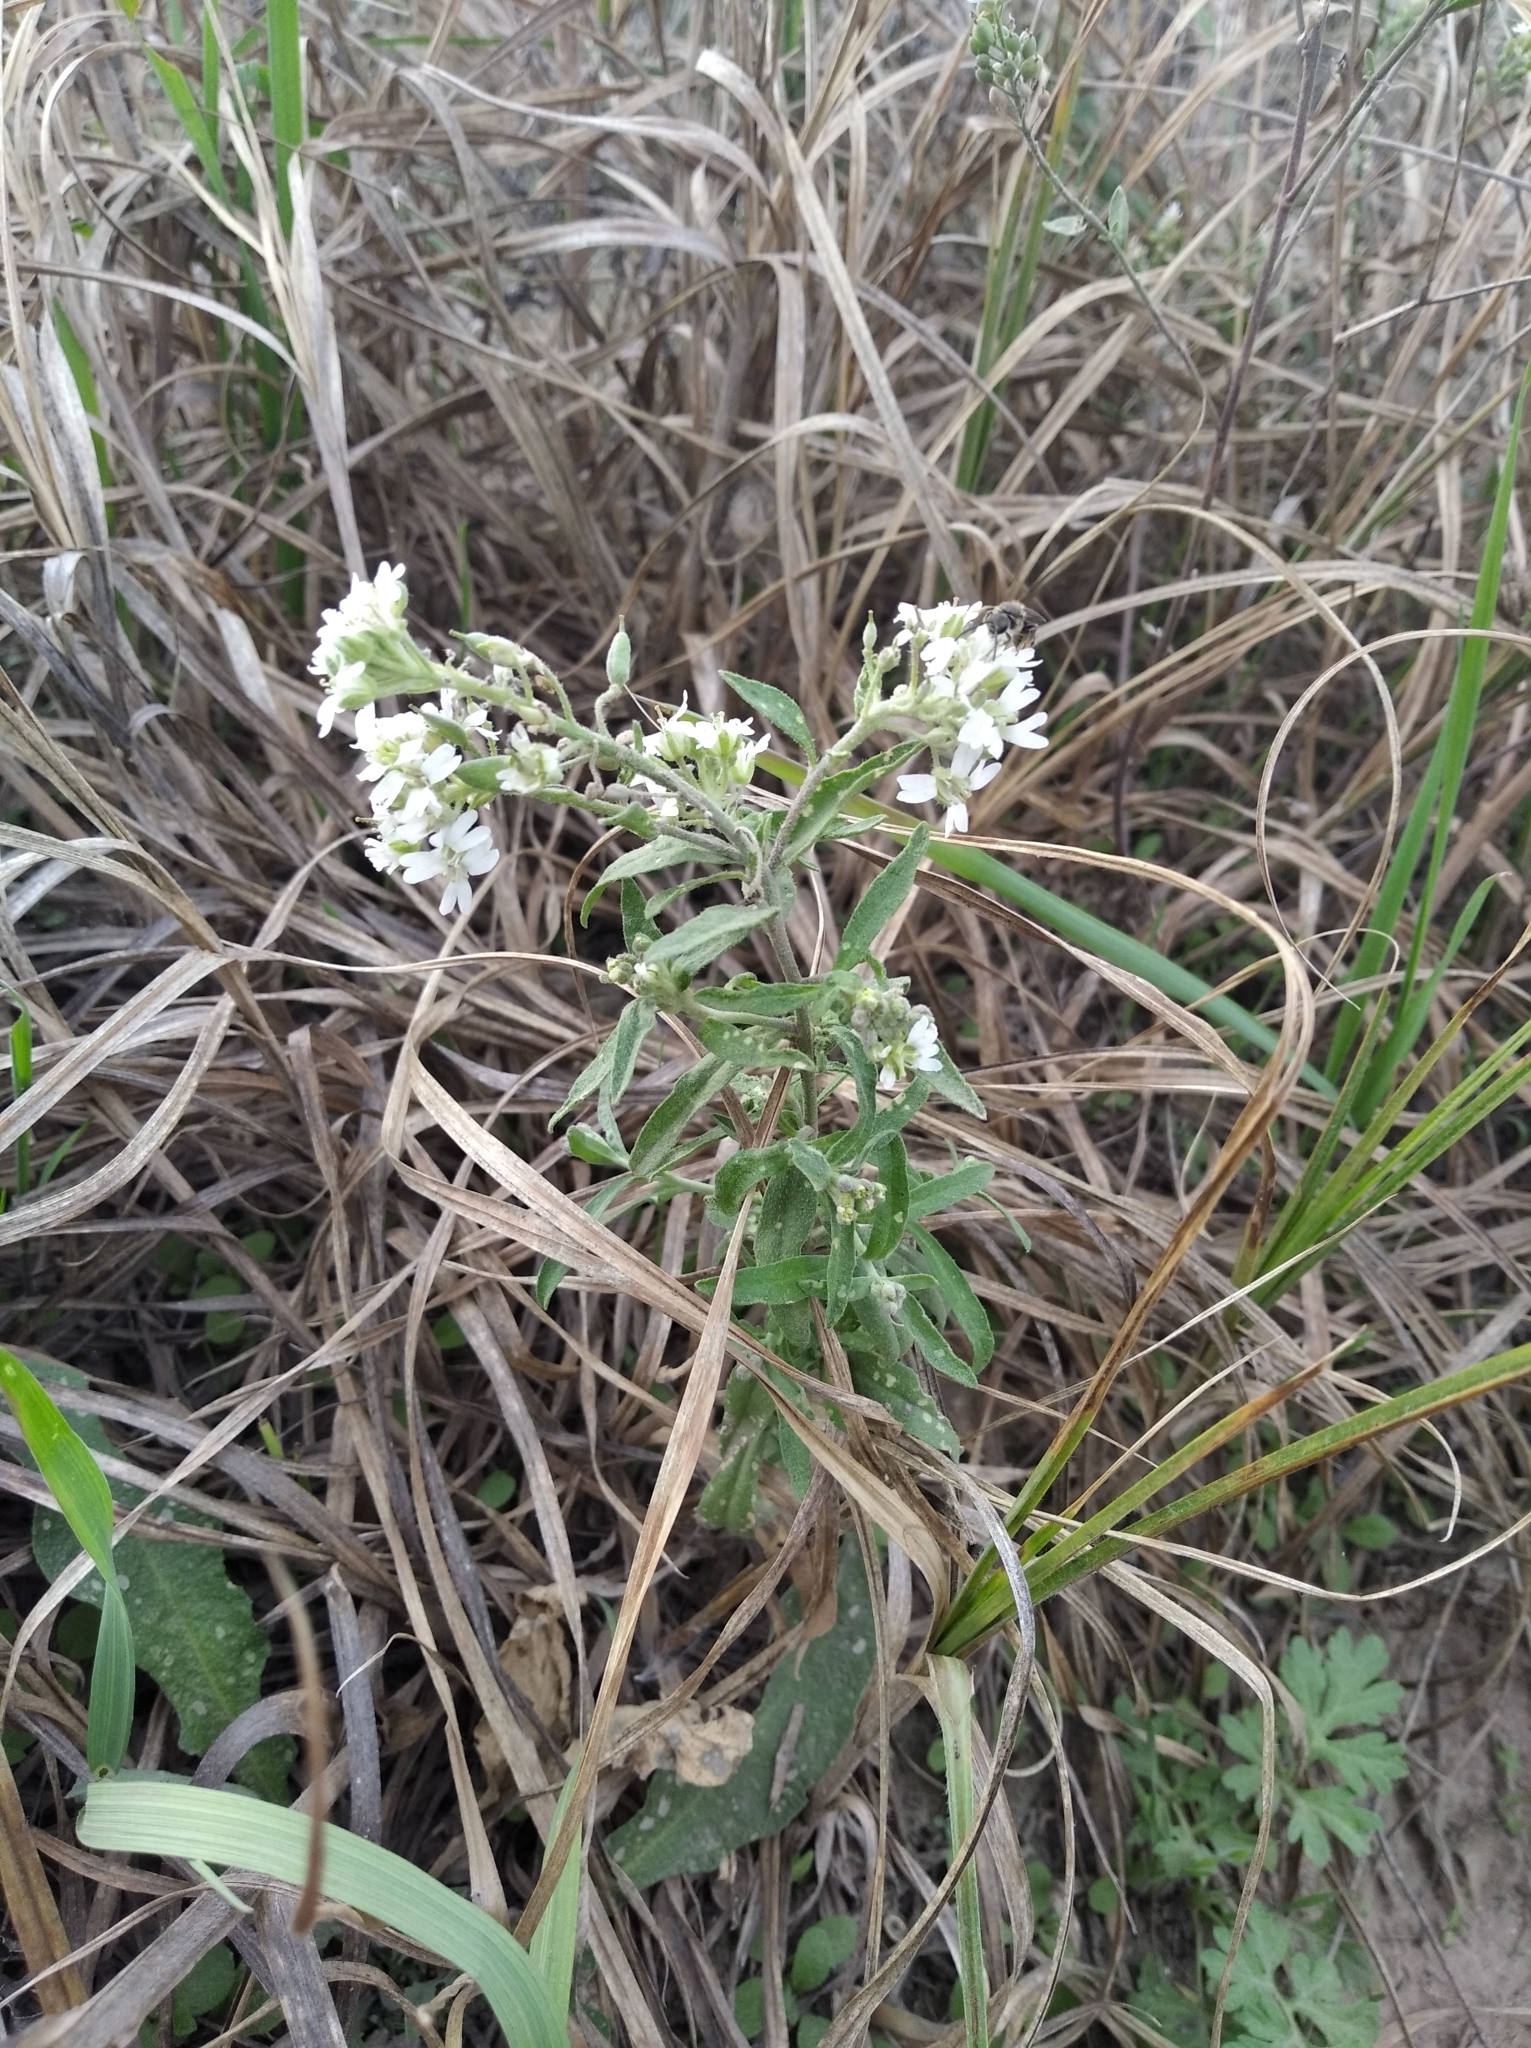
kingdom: Plantae
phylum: Tracheophyta
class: Magnoliopsida
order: Brassicales
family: Brassicaceae
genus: Berteroa
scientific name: Berteroa incana
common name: Hoary alison
